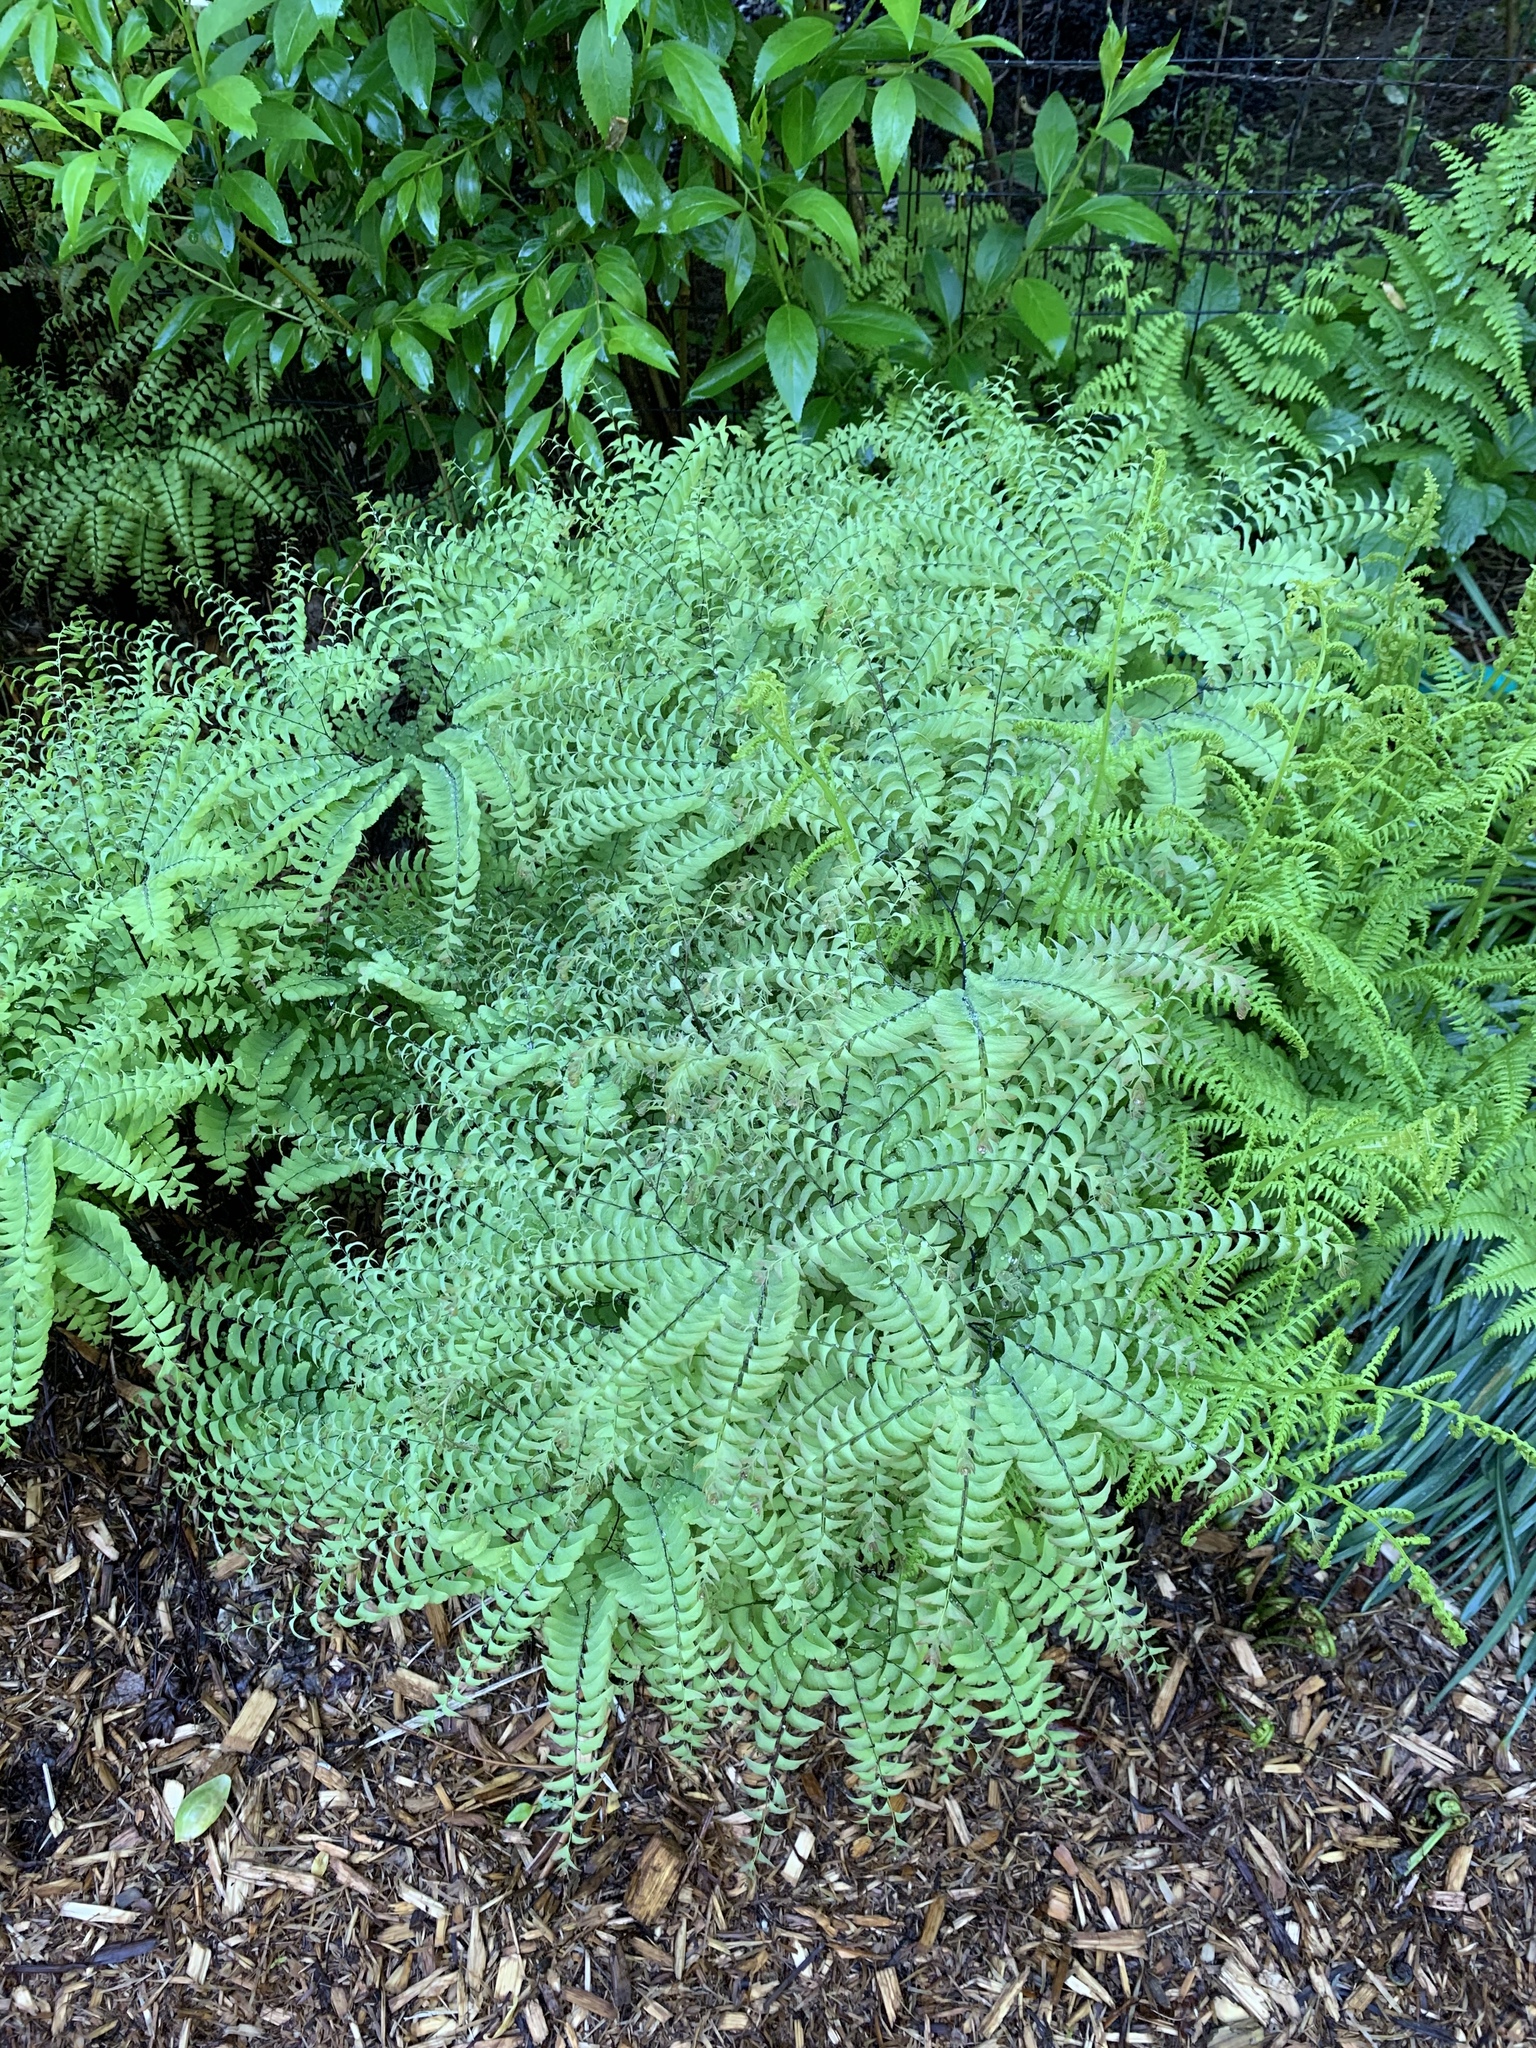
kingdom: Plantae
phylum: Tracheophyta
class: Polypodiopsida
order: Polypodiales
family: Pteridaceae
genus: Adiantum
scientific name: Adiantum pedatum
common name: Five-finger fern
